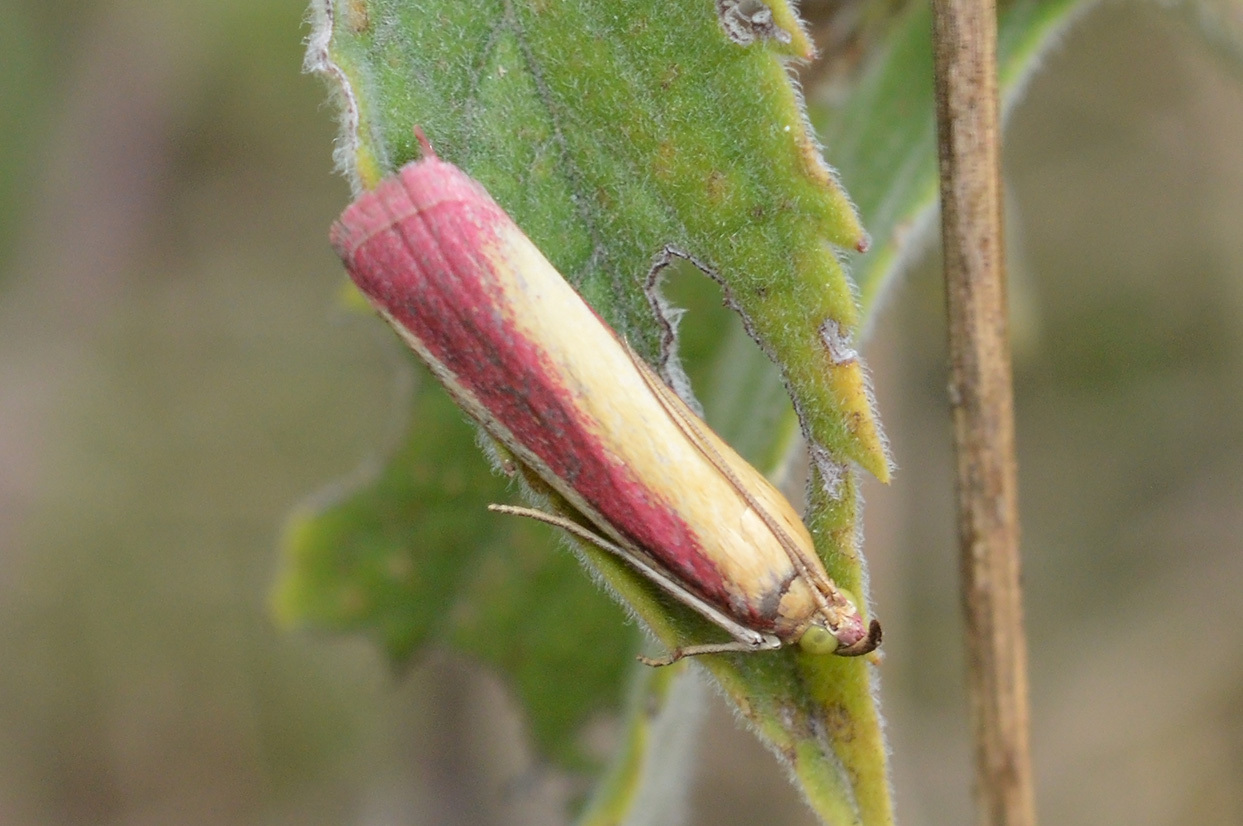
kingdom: Animalia
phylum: Arthropoda
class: Insecta
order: Lepidoptera
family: Pyralidae
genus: Oncocera
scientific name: Oncocera semirubella
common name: Rosy-striped knot-horn
